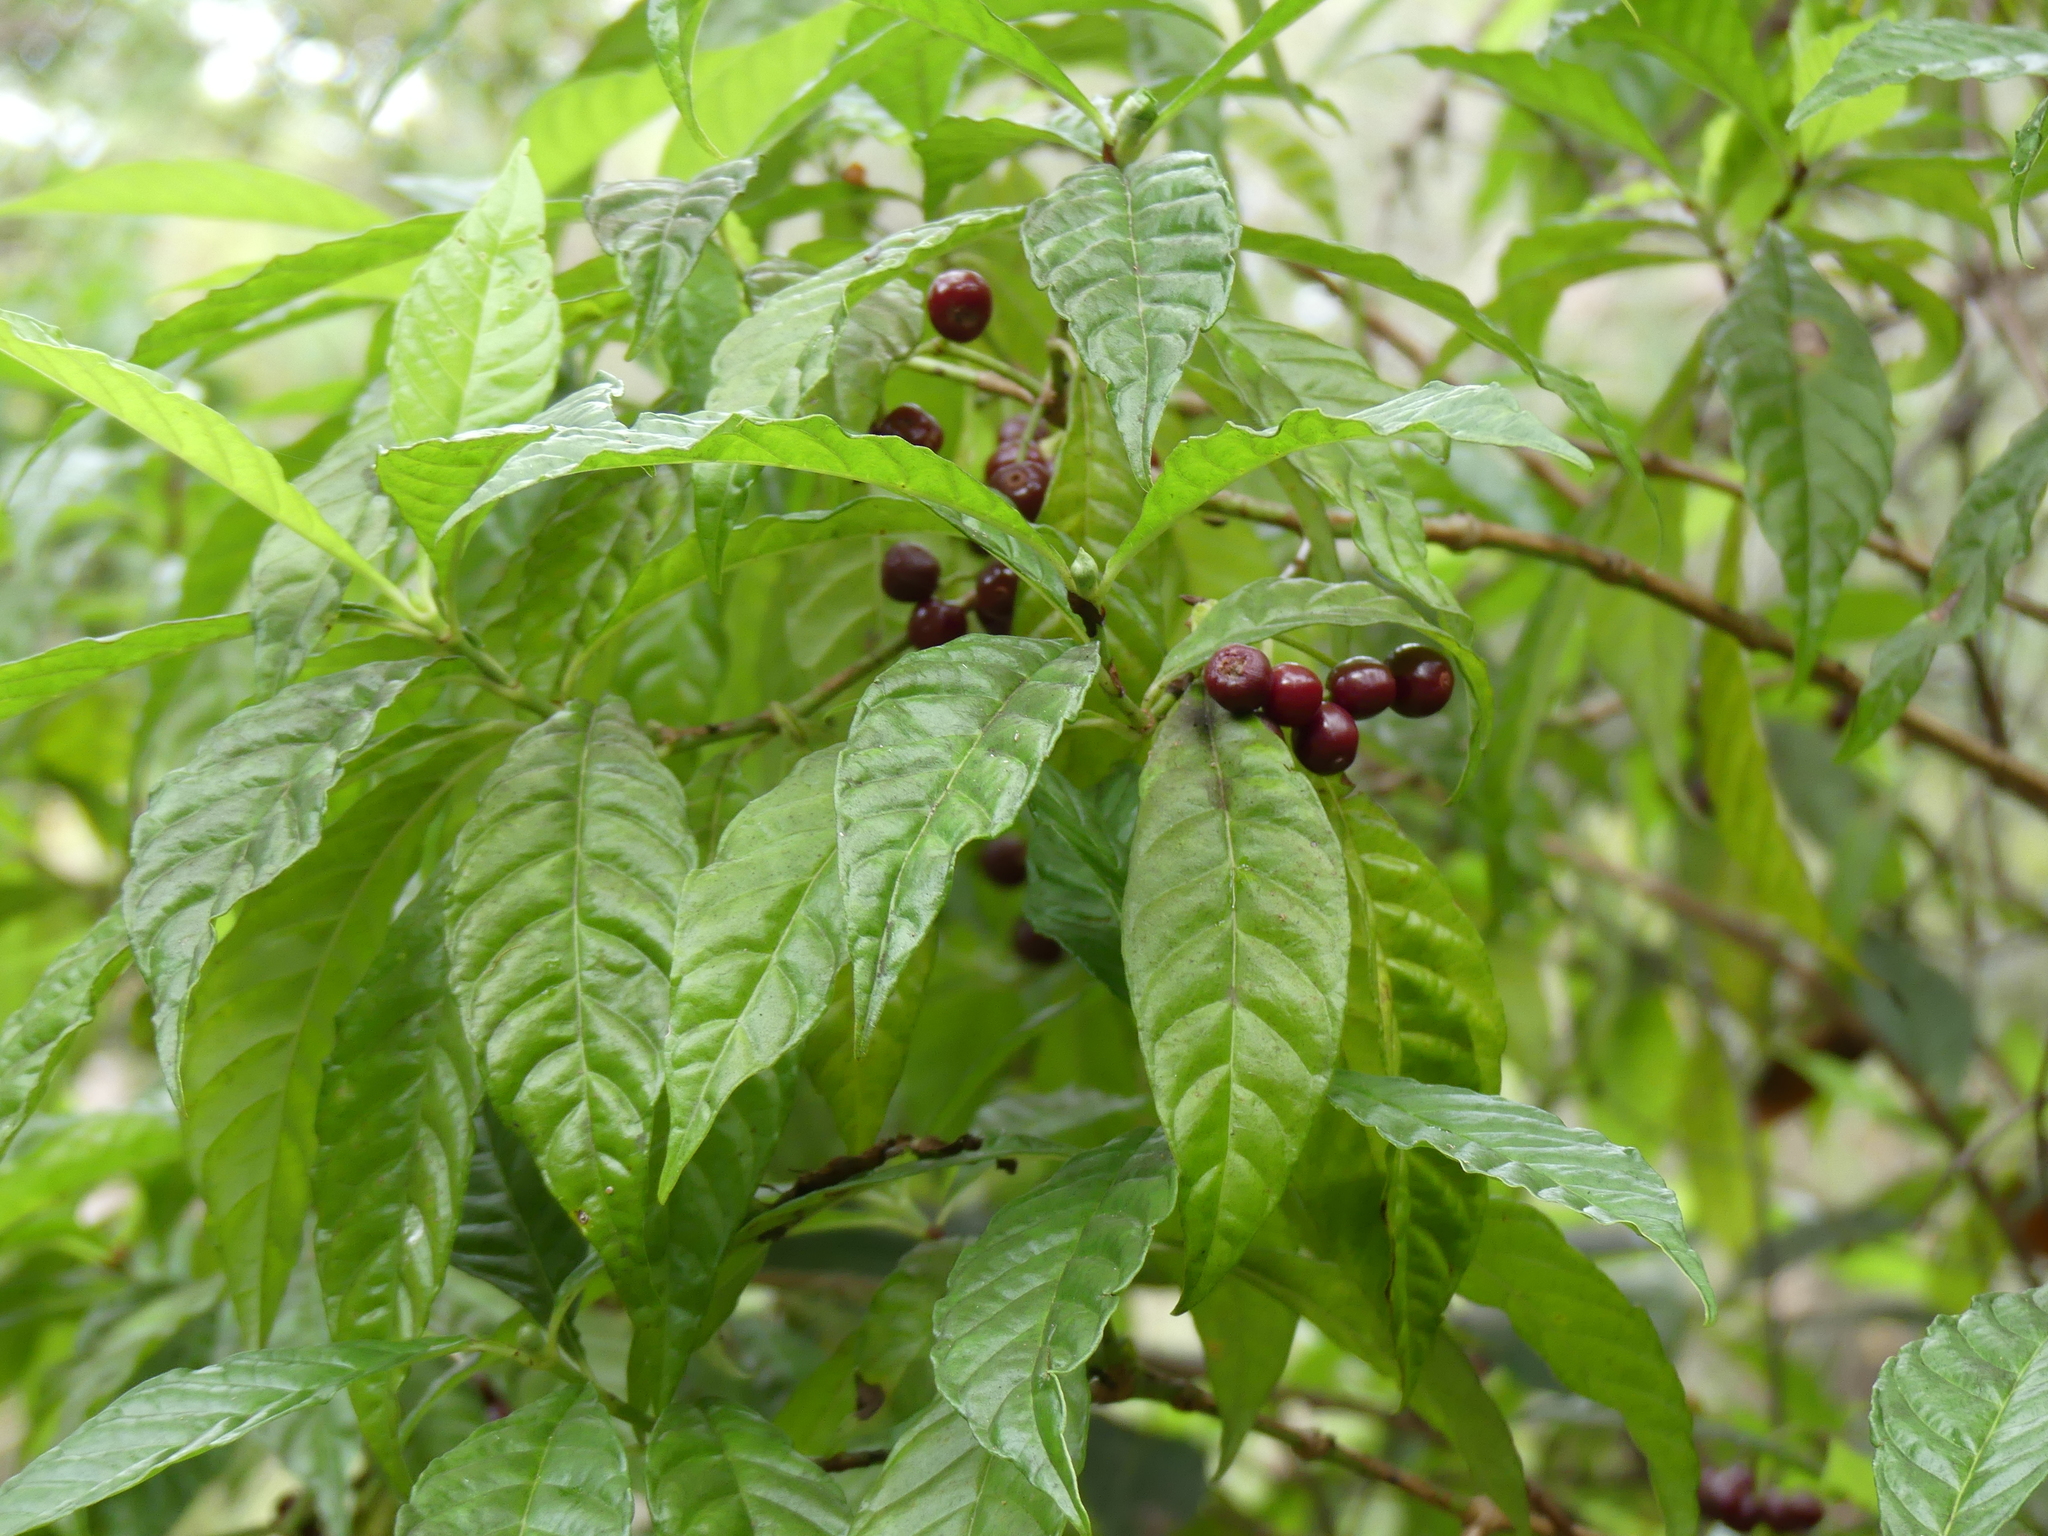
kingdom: Plantae
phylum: Tracheophyta
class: Magnoliopsida
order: Gentianales
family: Rubiaceae
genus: Psychotria
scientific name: Psychotria nervosa
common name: Bastard cankerberry
